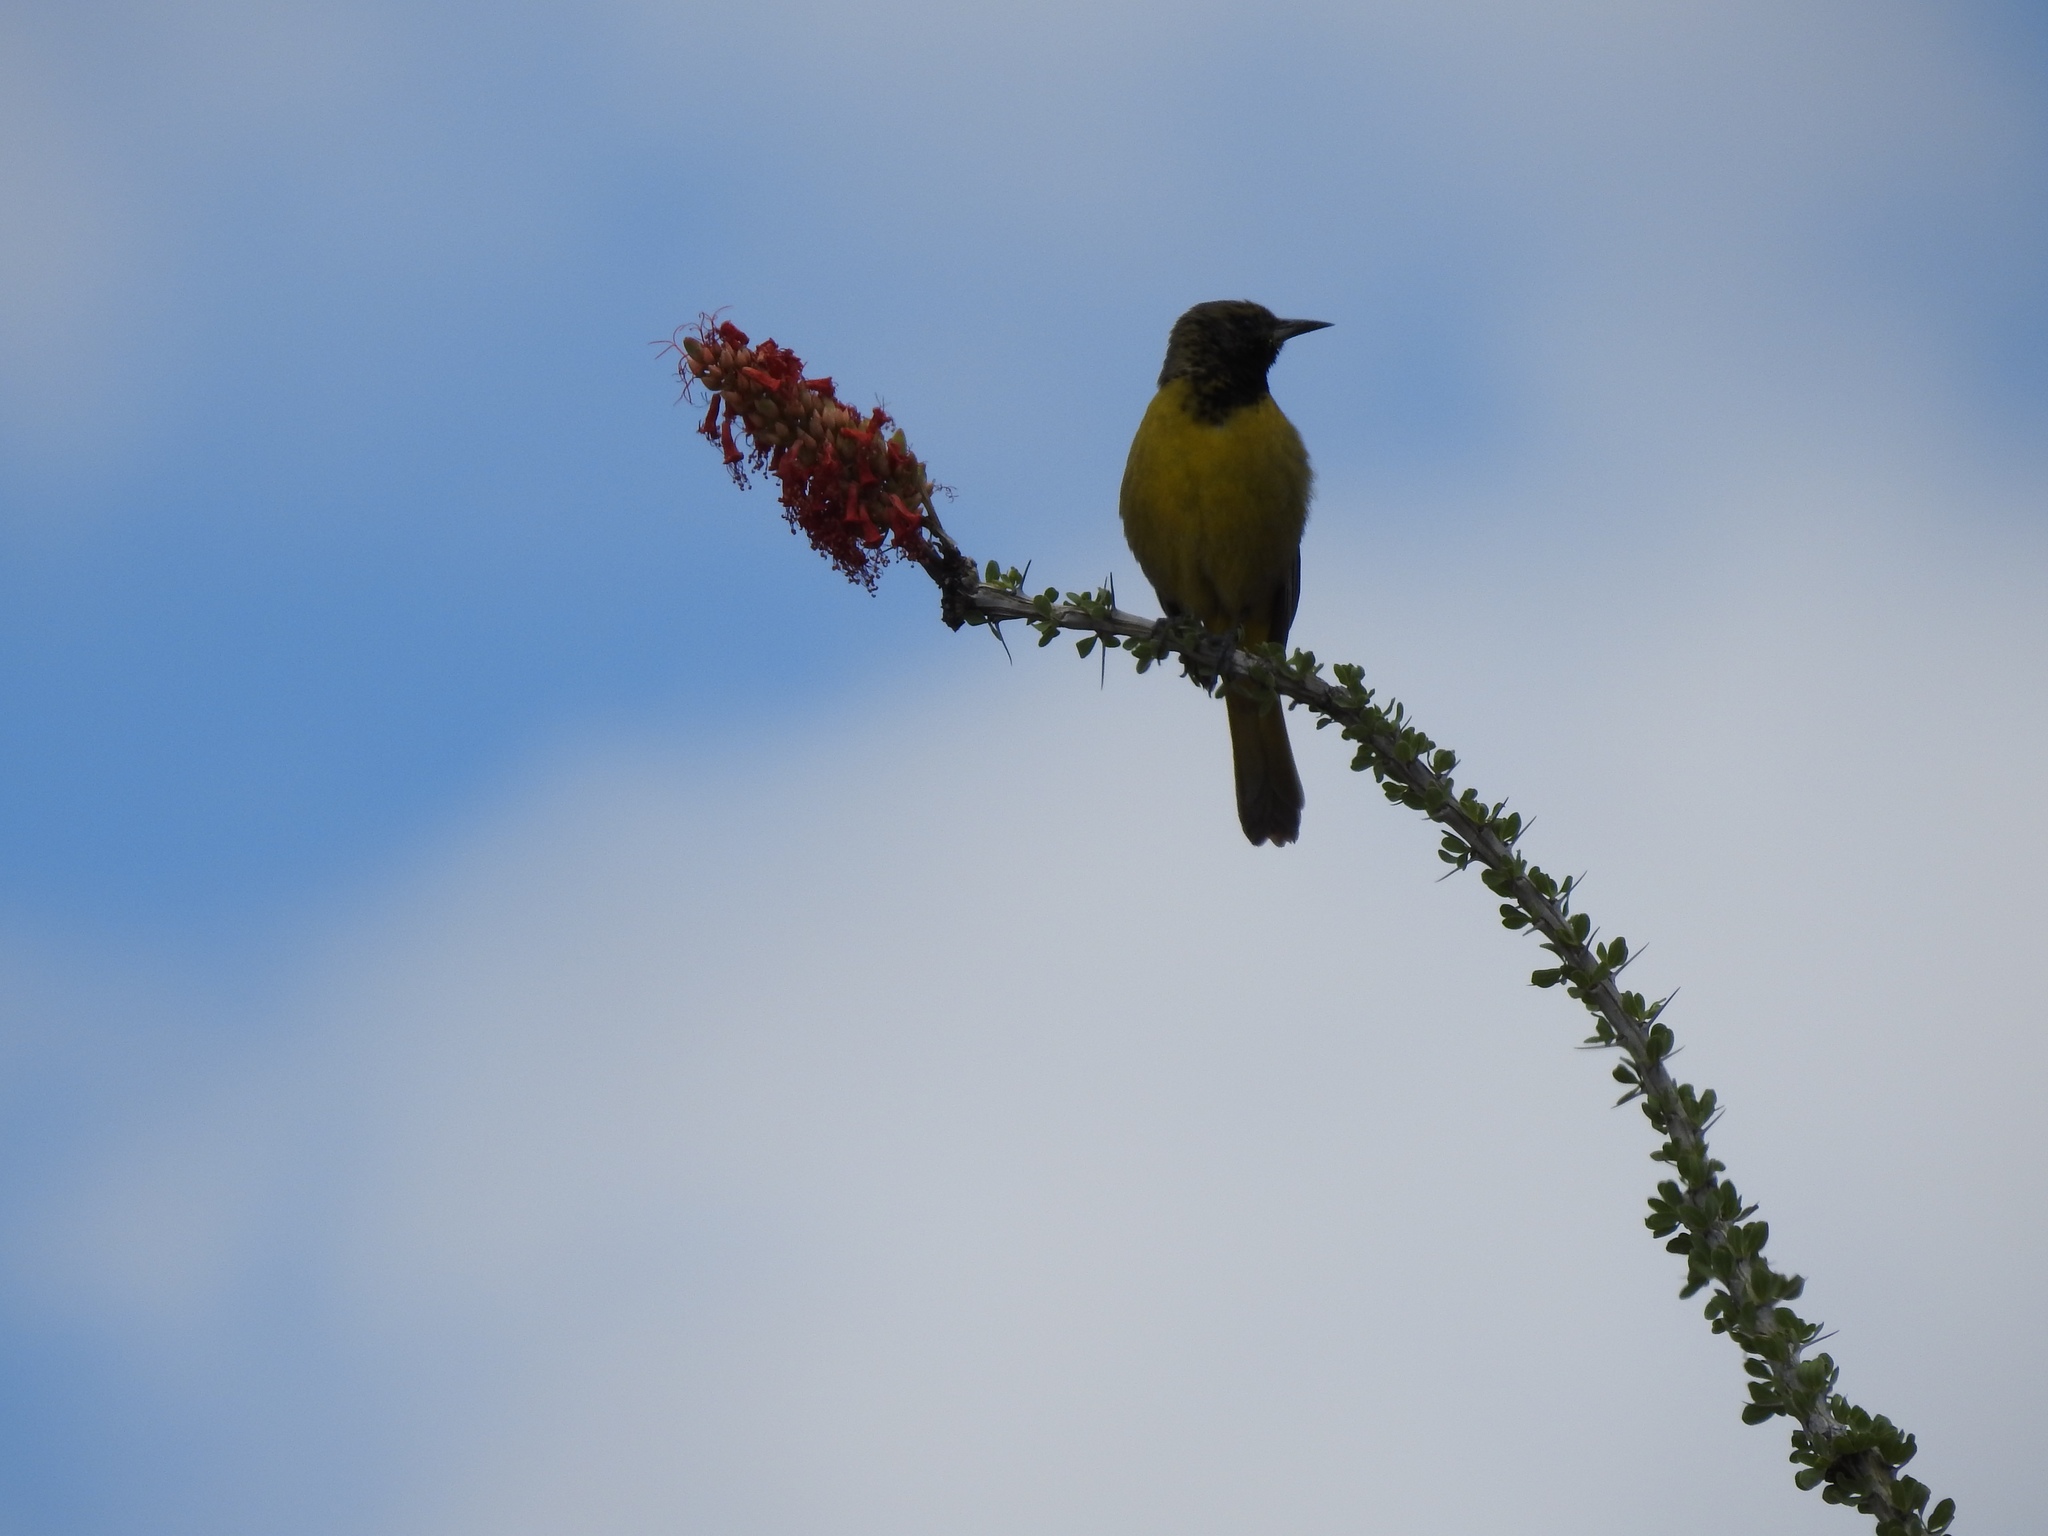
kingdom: Animalia
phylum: Chordata
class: Aves
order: Passeriformes
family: Icteridae
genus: Icterus
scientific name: Icterus parisorum
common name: Scott's oriole
